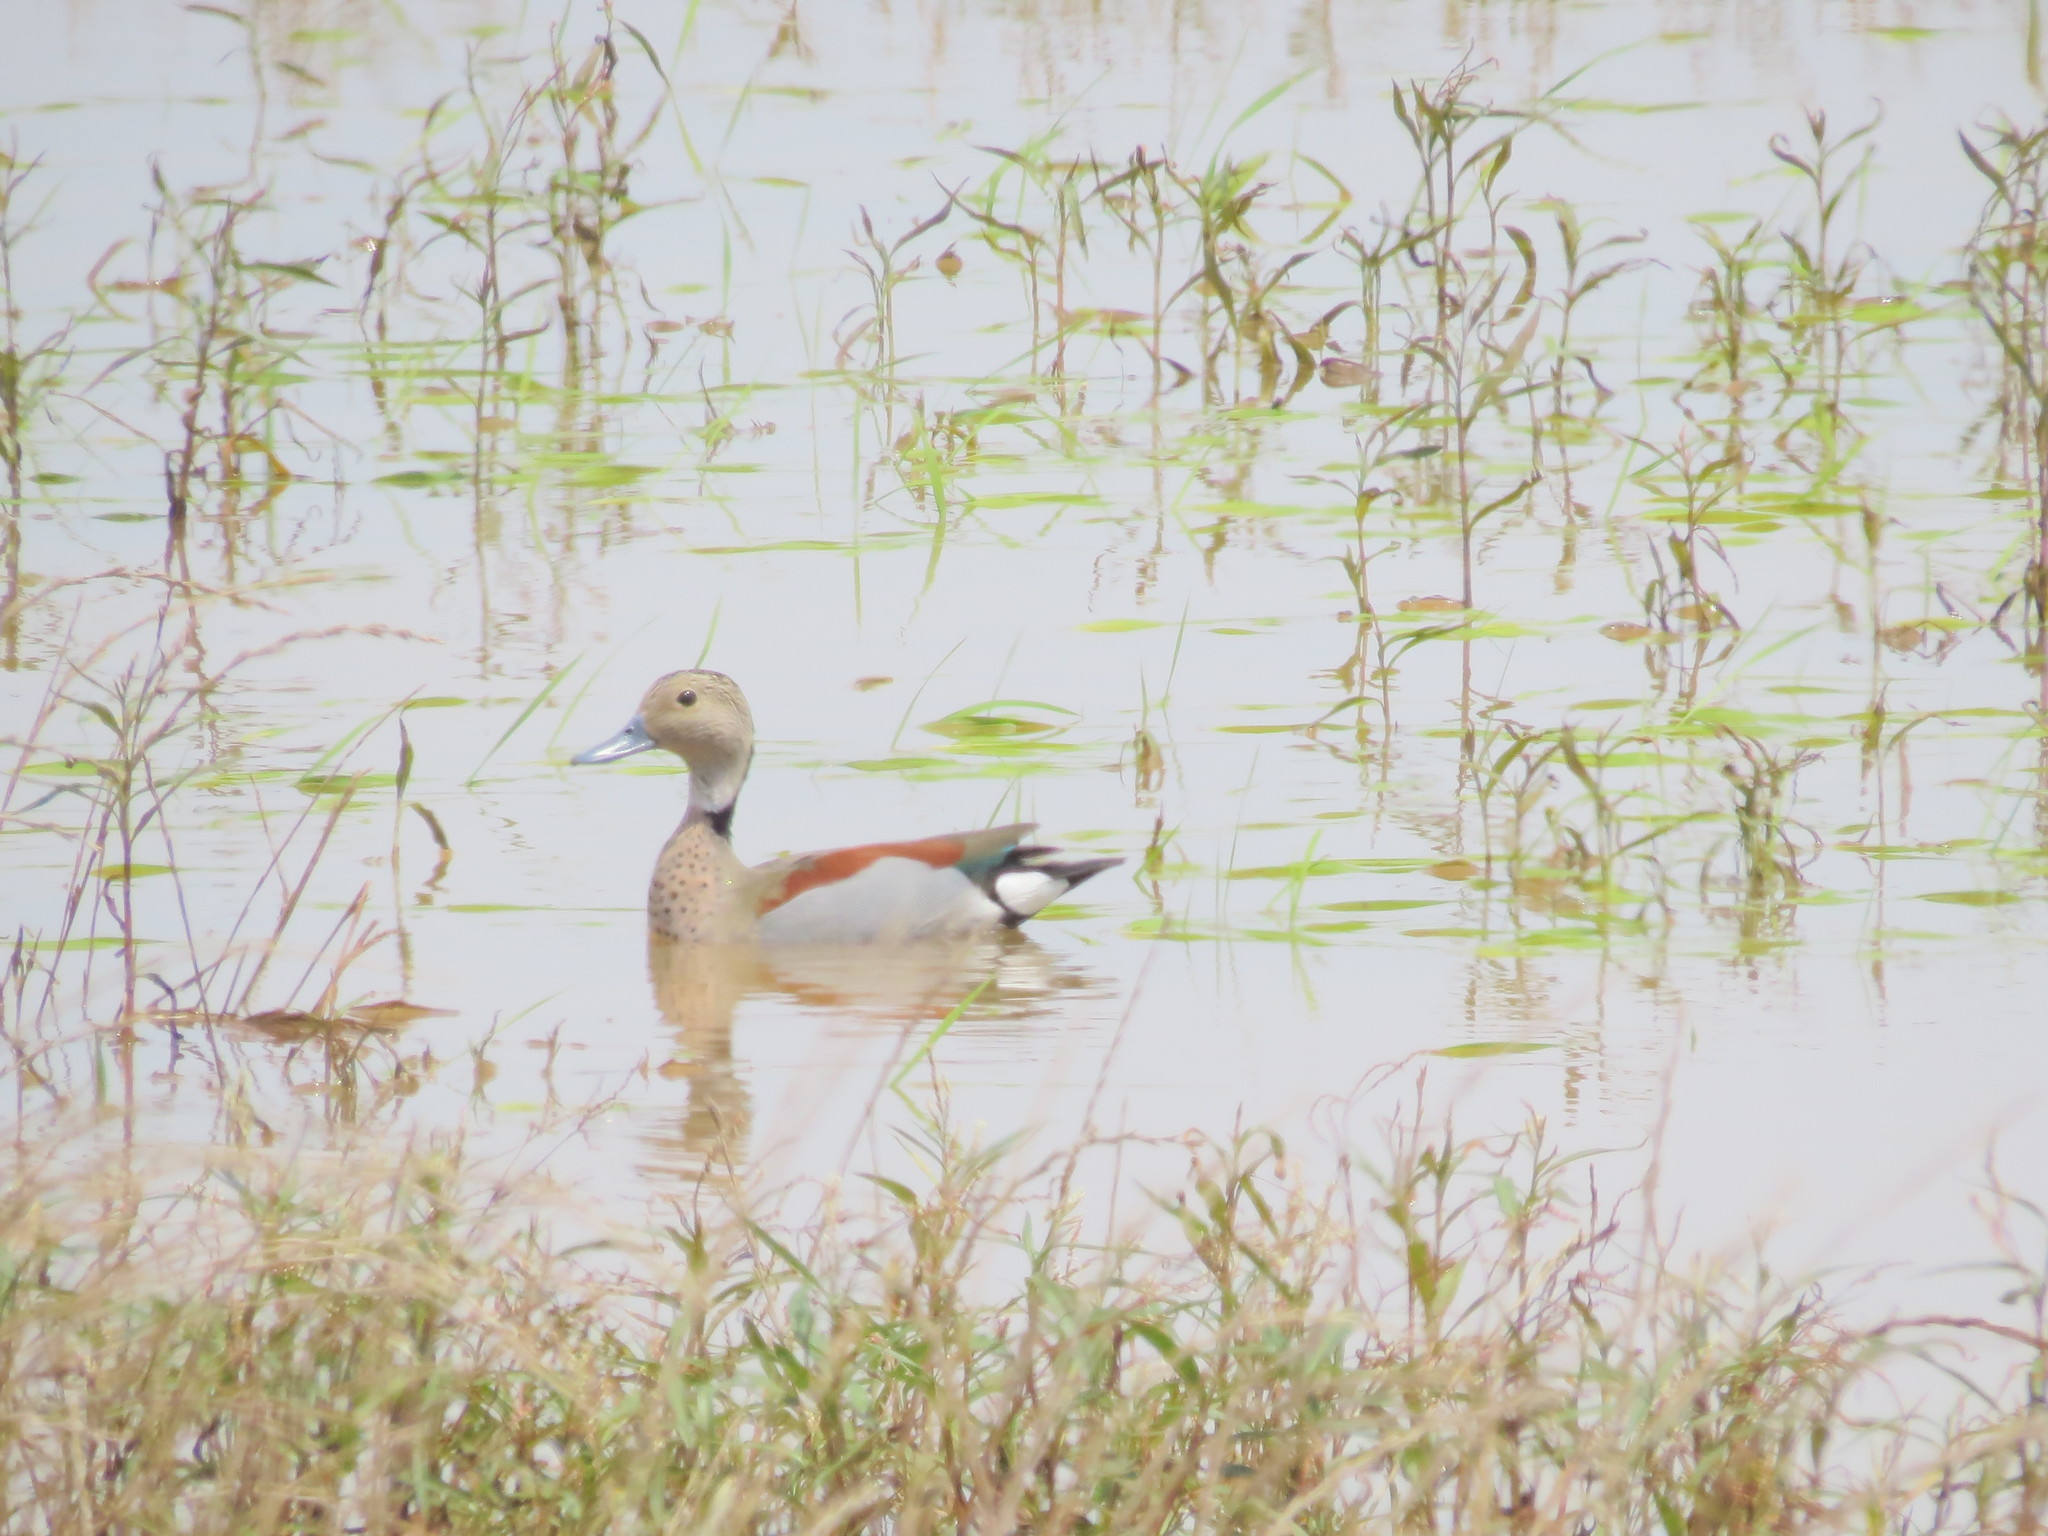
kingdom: Animalia
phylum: Chordata
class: Aves
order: Anseriformes
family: Anatidae
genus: Callonetta
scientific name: Callonetta leucophrys
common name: Ringed teal
